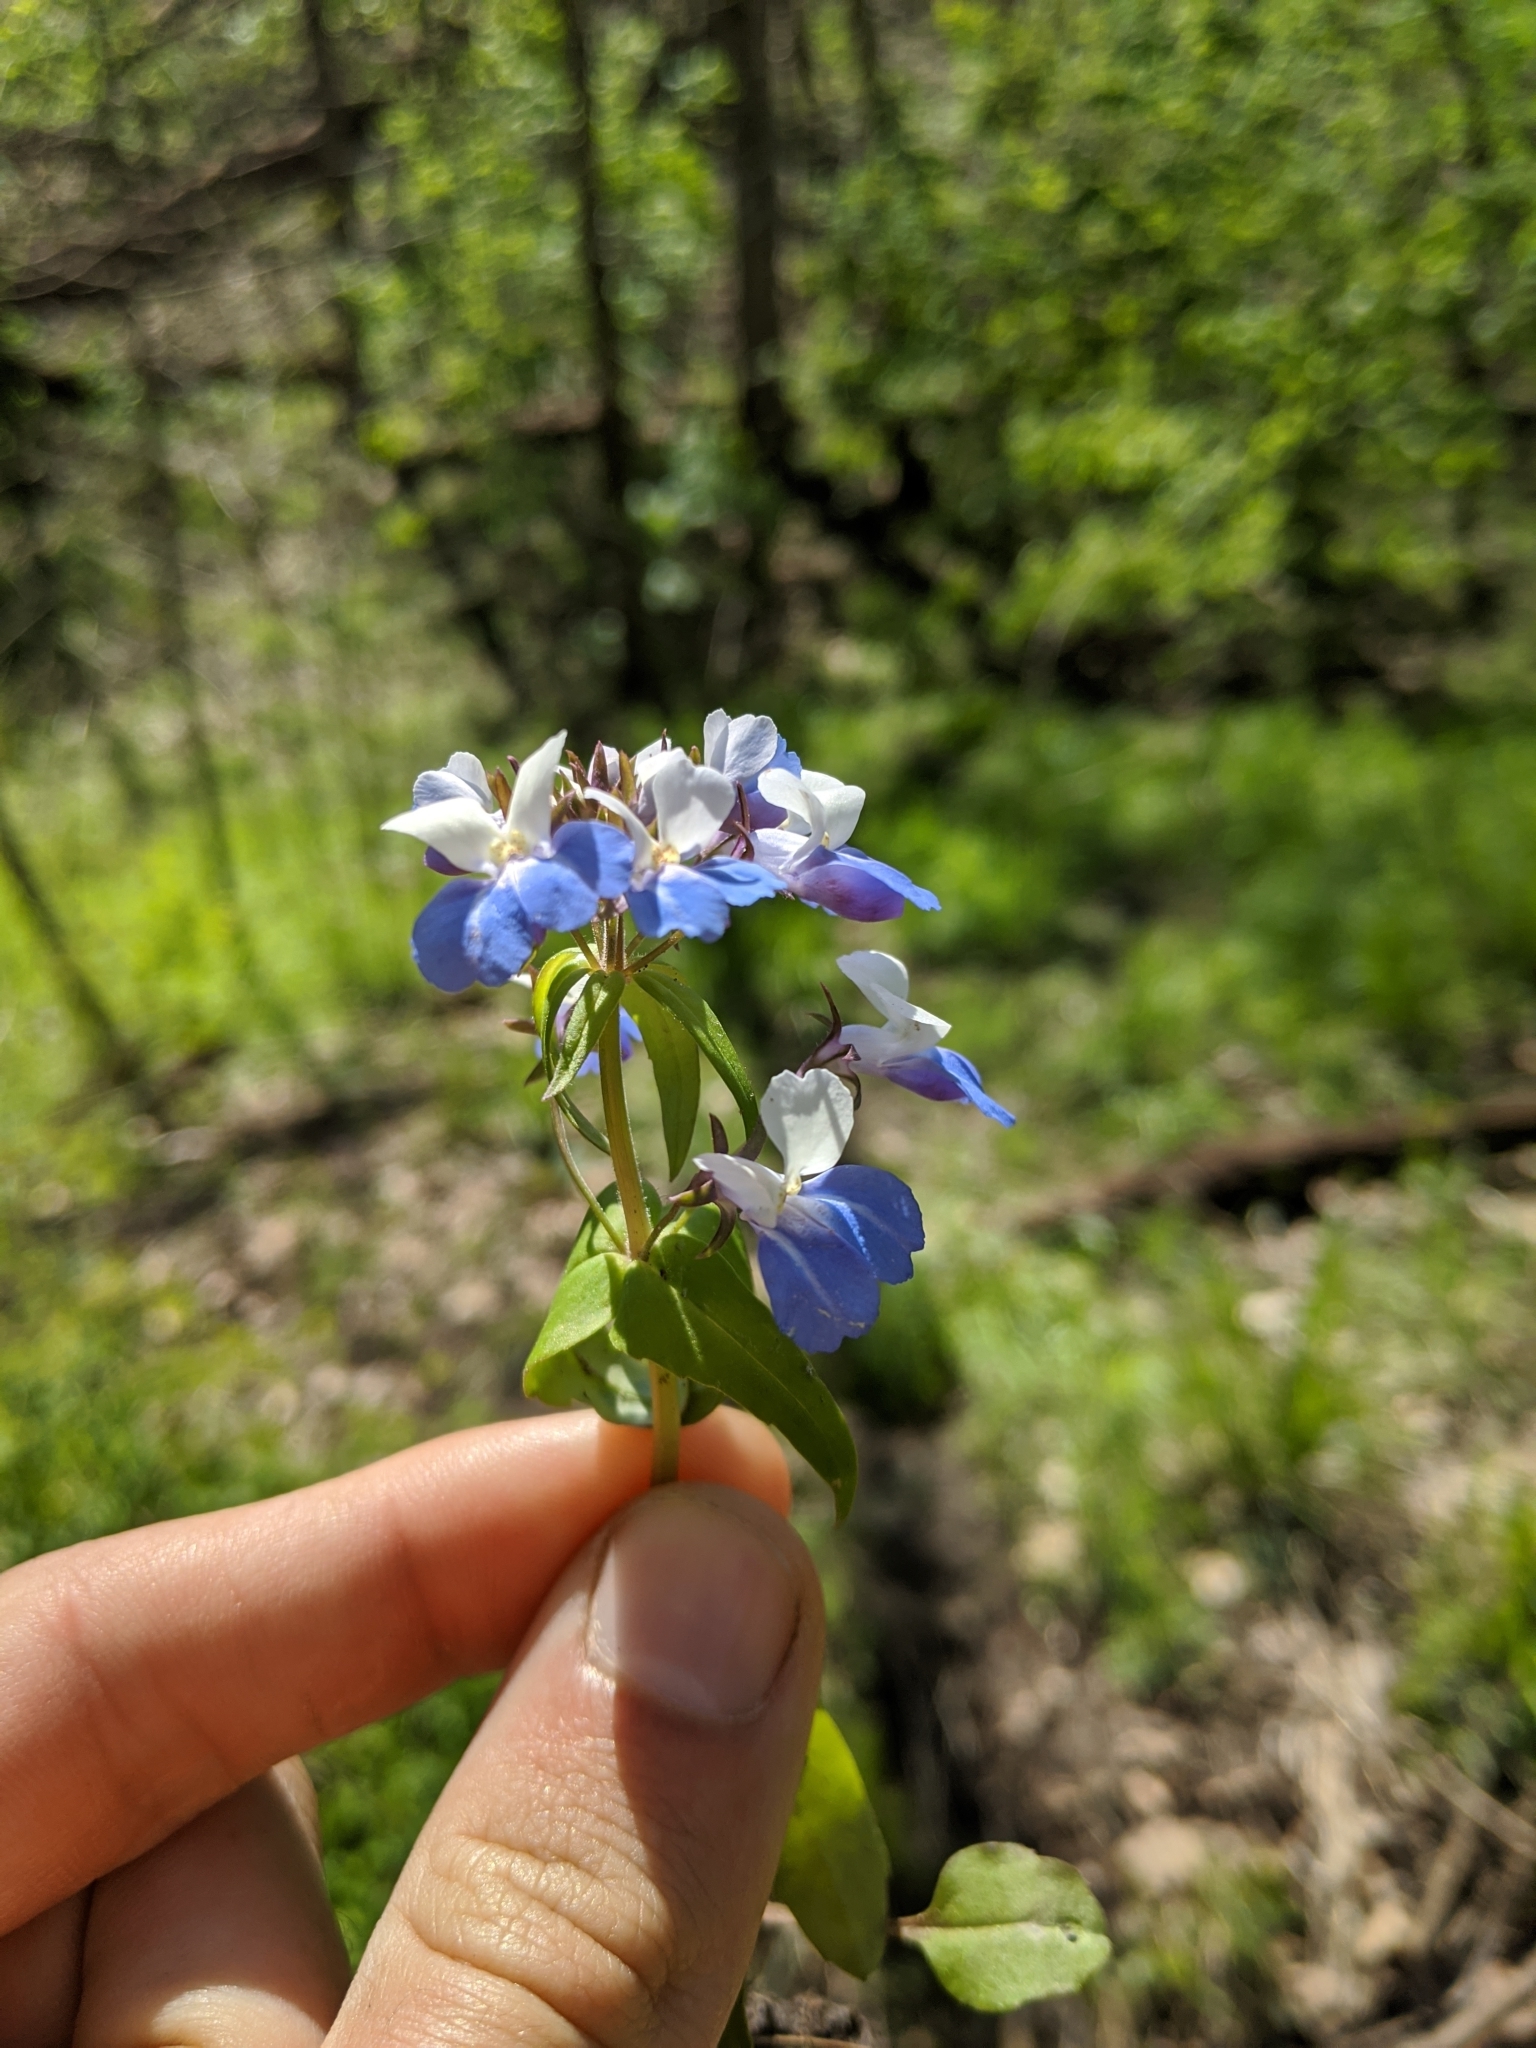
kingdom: Plantae
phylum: Tracheophyta
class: Magnoliopsida
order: Lamiales
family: Plantaginaceae
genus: Collinsia
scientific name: Collinsia verna
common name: Broad-leaved collinsia
